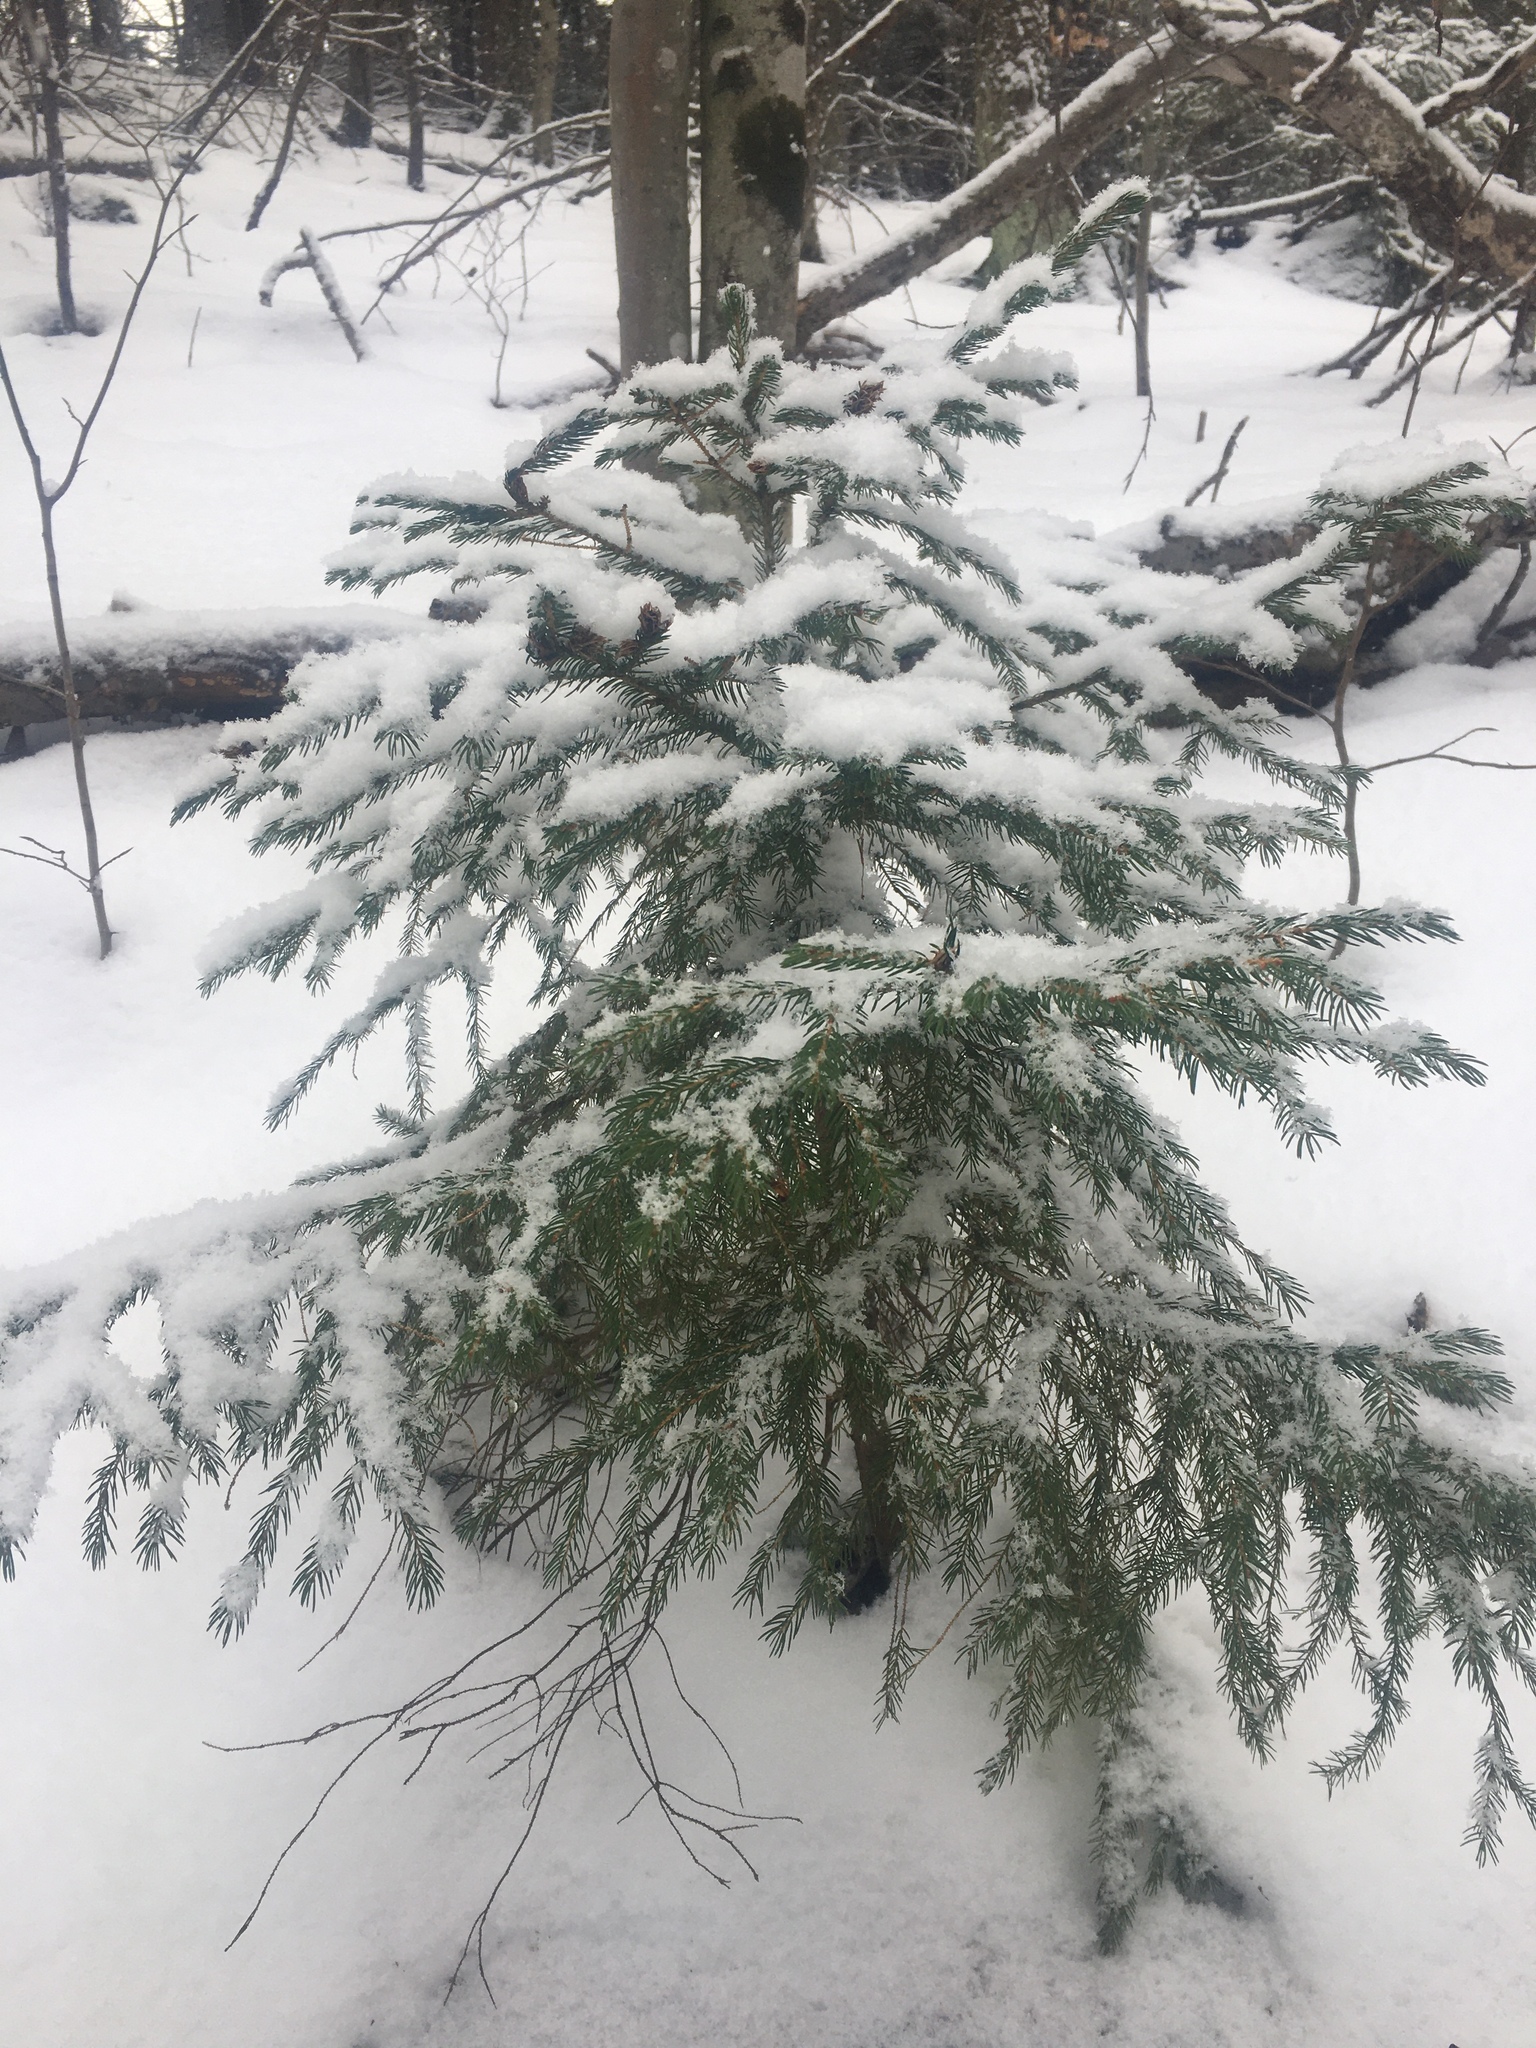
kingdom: Plantae
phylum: Tracheophyta
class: Pinopsida
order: Pinales
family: Pinaceae
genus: Picea
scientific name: Picea rubens
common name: Red spruce
